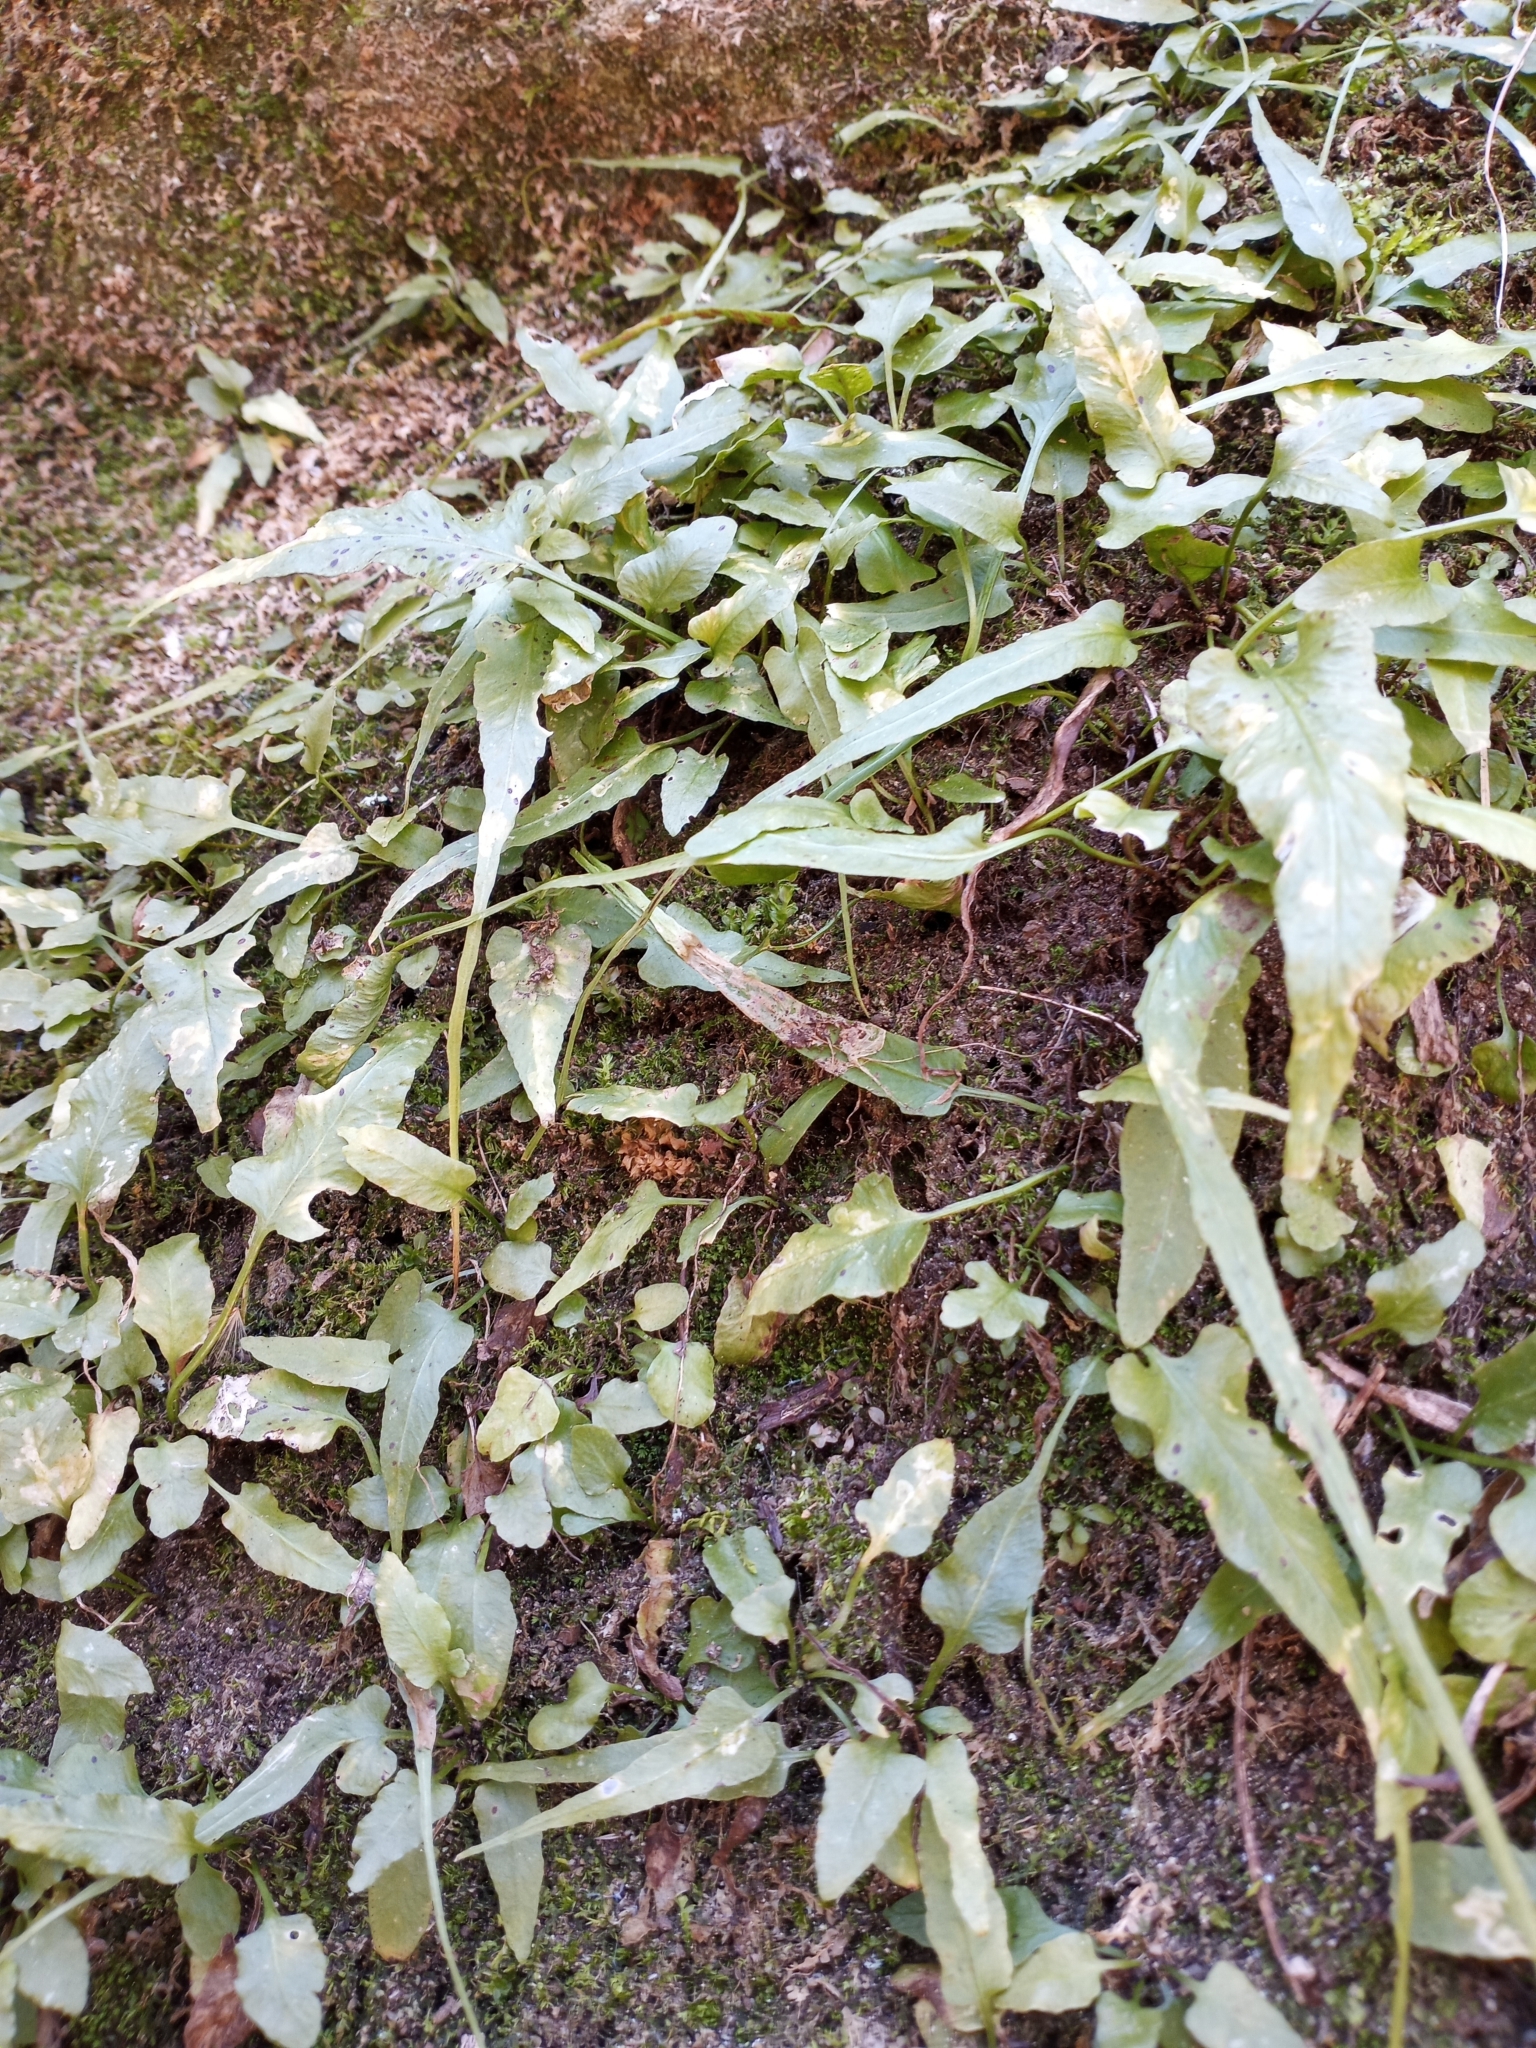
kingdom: Plantae
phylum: Tracheophyta
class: Polypodiopsida
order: Polypodiales
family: Aspleniaceae
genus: Asplenium
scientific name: Asplenium rhizophyllum
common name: Walking fern
